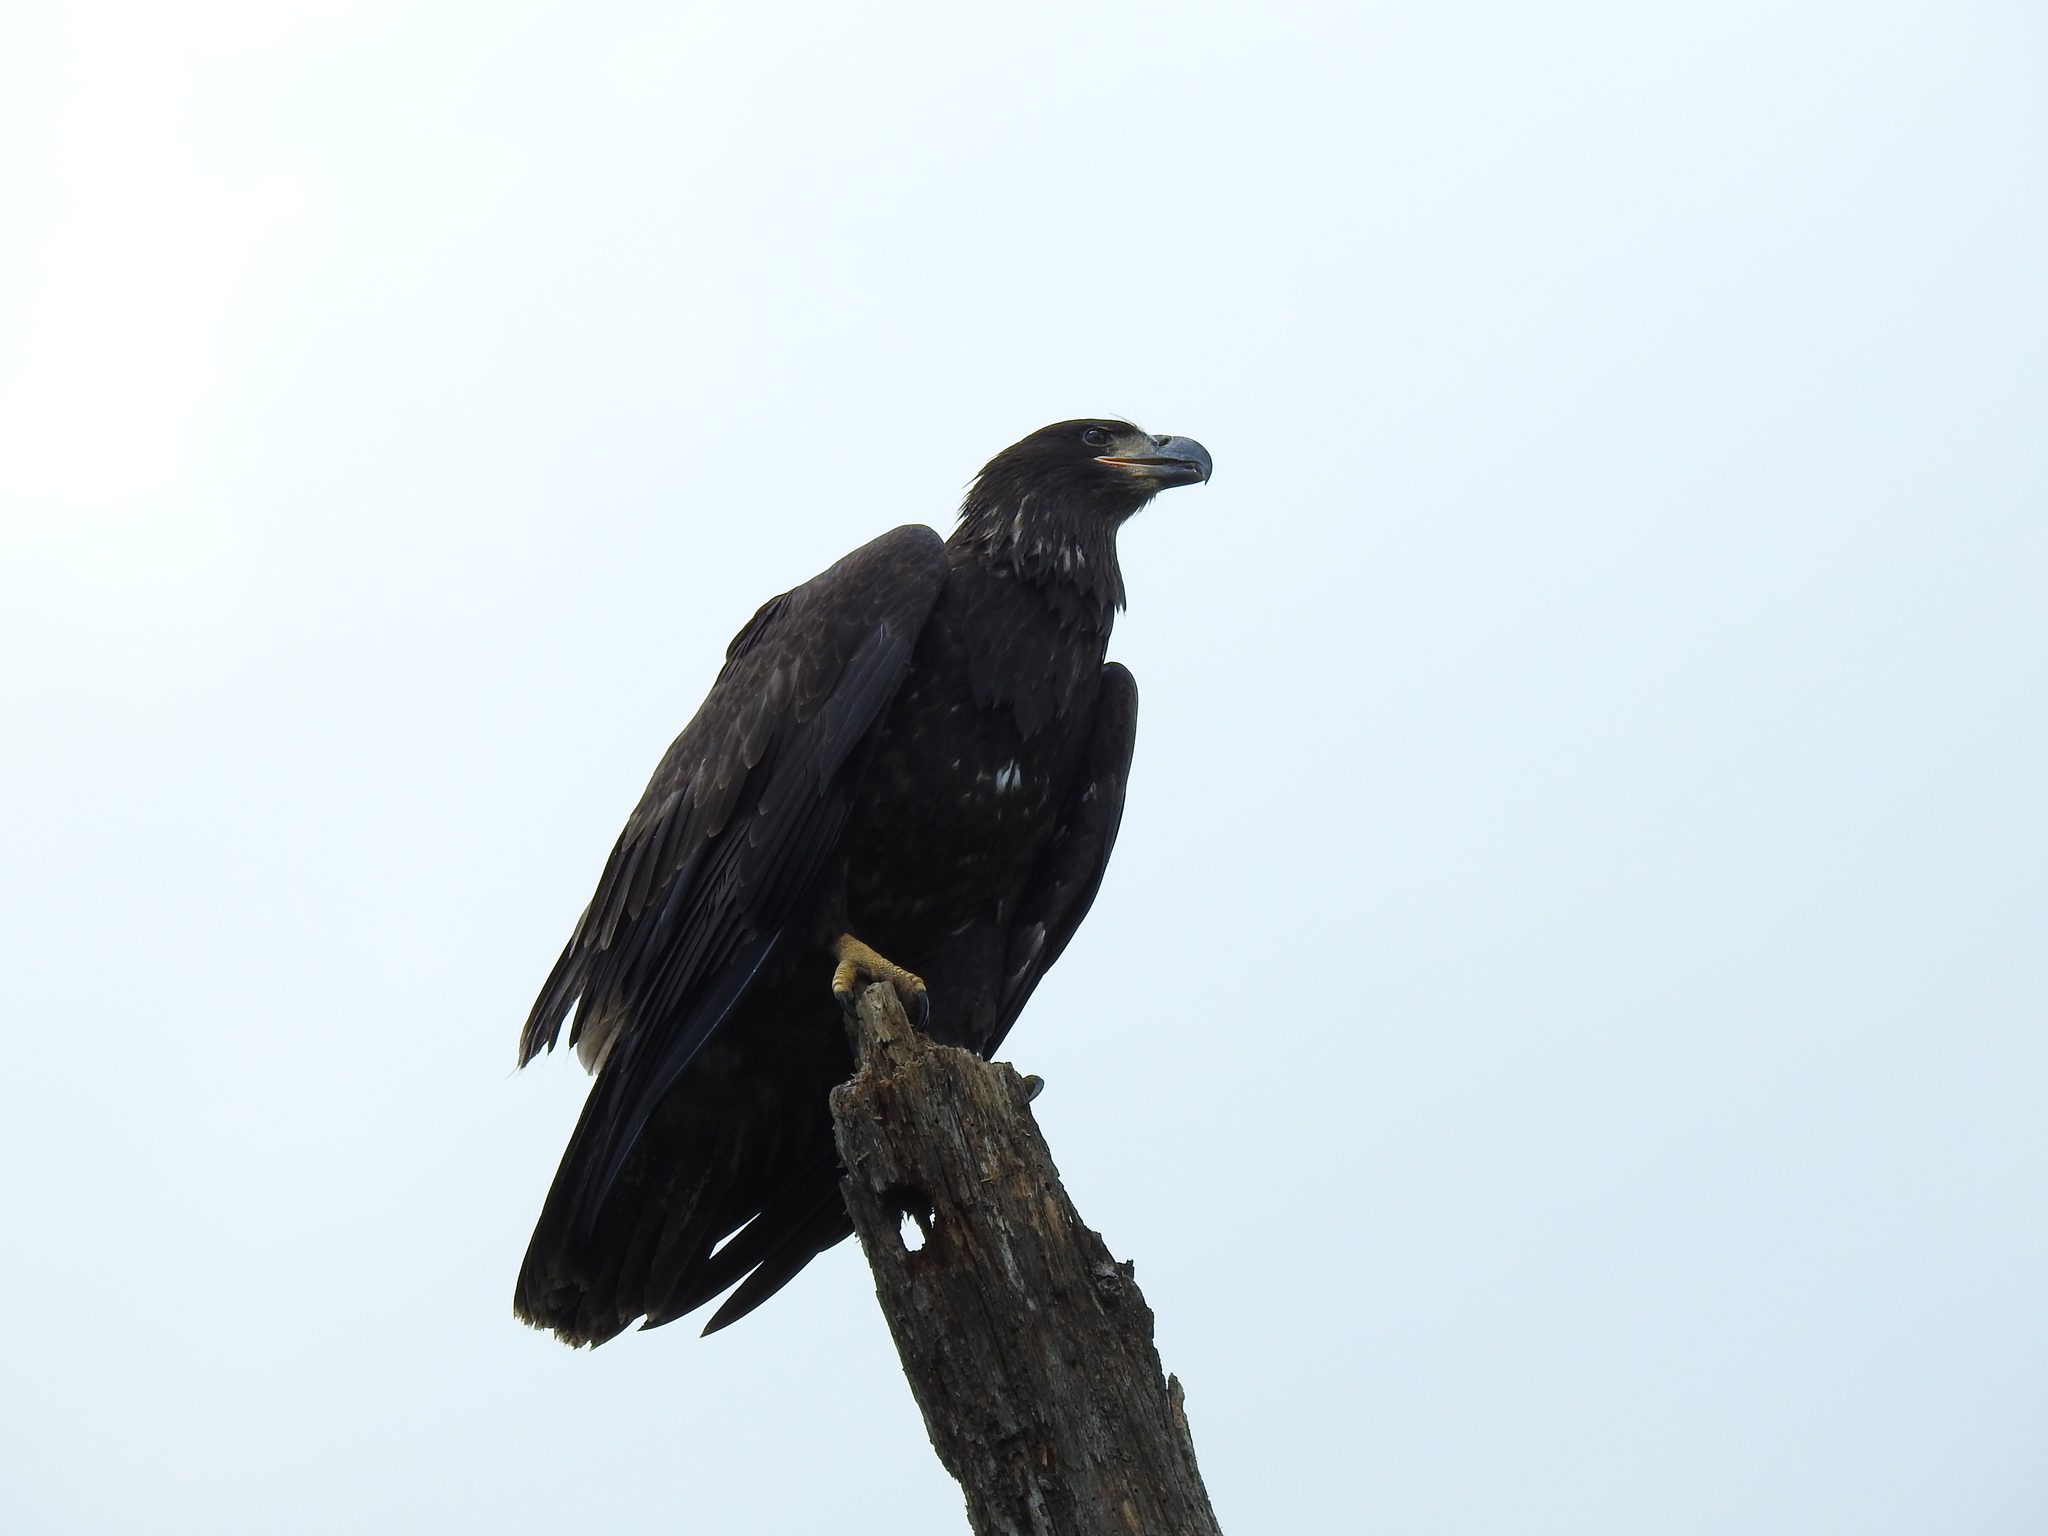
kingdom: Animalia
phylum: Chordata
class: Aves
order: Accipitriformes
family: Accipitridae
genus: Haliaeetus
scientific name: Haliaeetus leucocephalus
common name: Bald eagle
